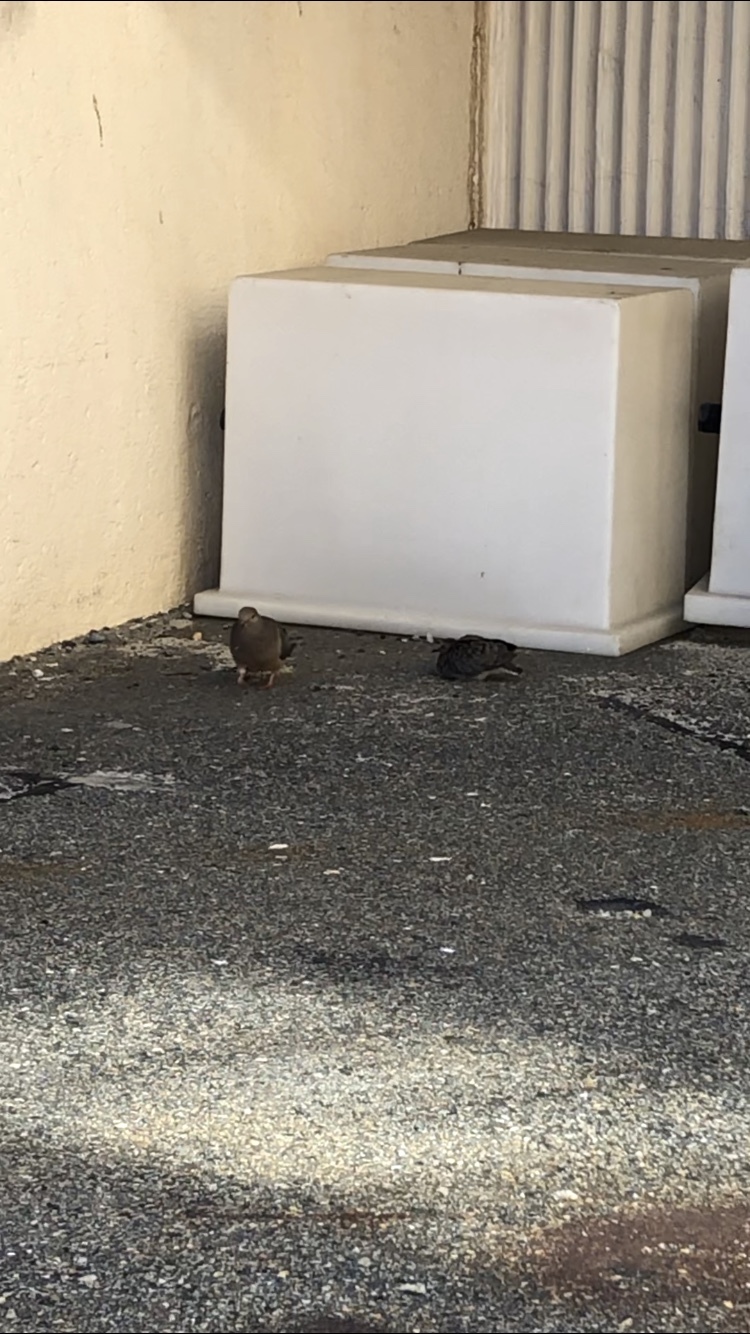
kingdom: Animalia
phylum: Chordata
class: Aves
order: Columbiformes
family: Columbidae
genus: Zenaida
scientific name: Zenaida macroura
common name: Mourning dove
